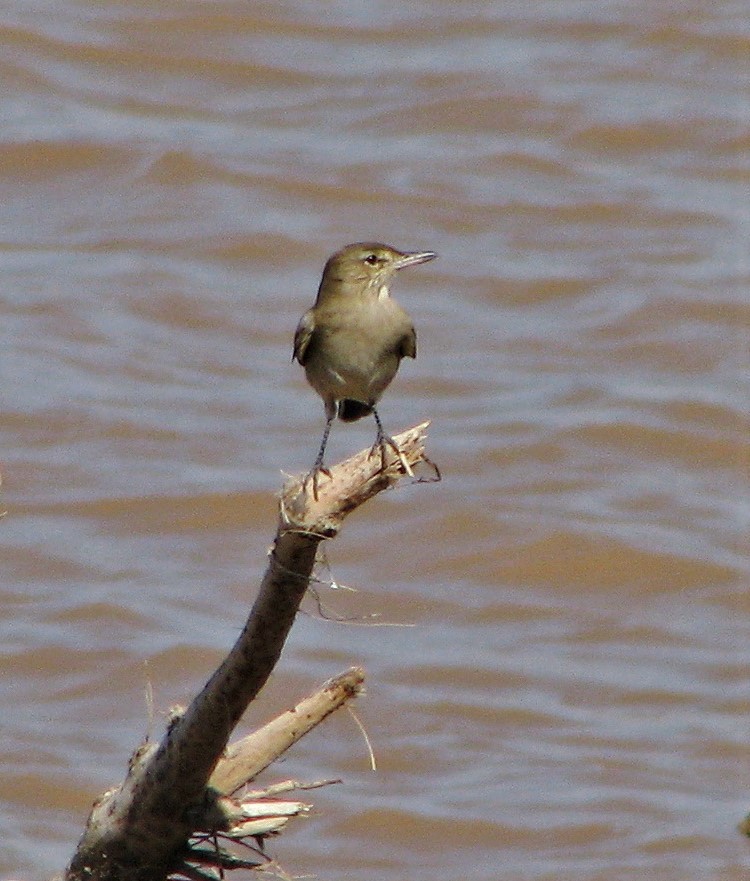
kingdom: Animalia
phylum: Chordata
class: Aves
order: Passeriformes
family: Tyrannidae
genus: Agriornis
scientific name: Agriornis micropterus
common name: Grey-bellied shrike-tyrant
